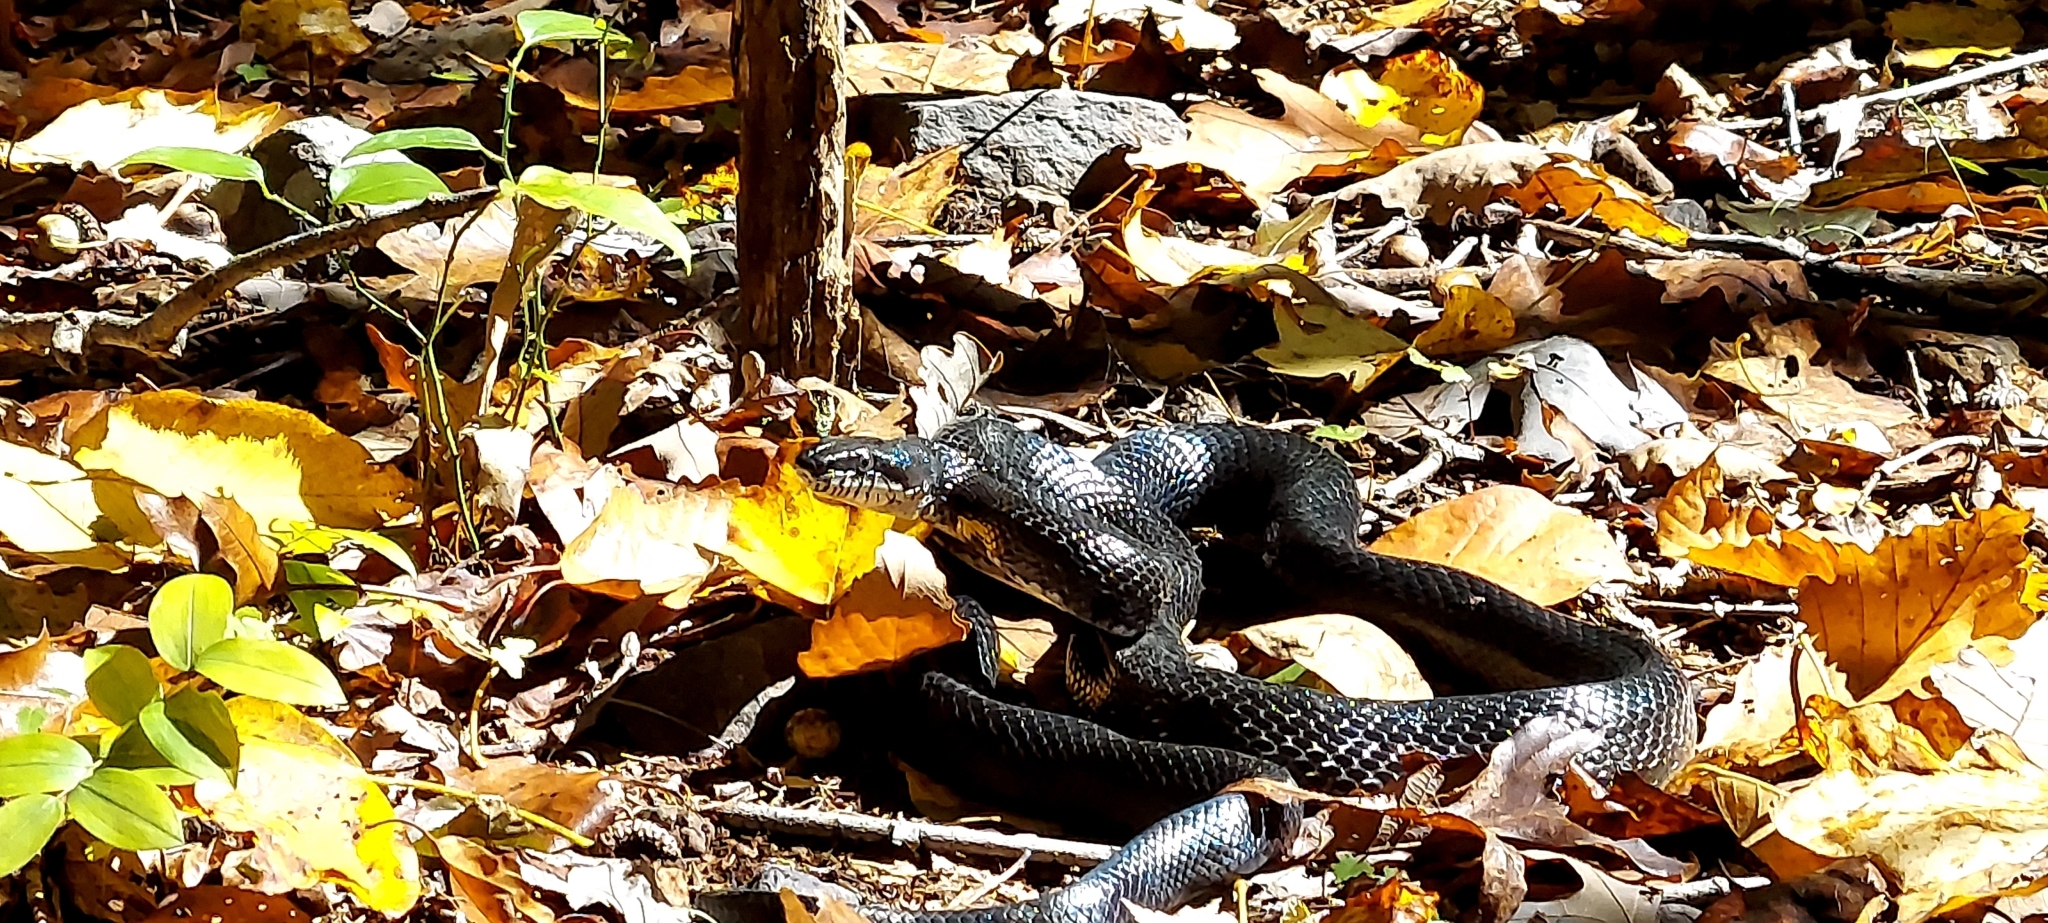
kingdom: Animalia
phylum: Chordata
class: Squamata
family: Colubridae
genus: Pantherophis
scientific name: Pantherophis alleghaniensis
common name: Eastern rat snake
